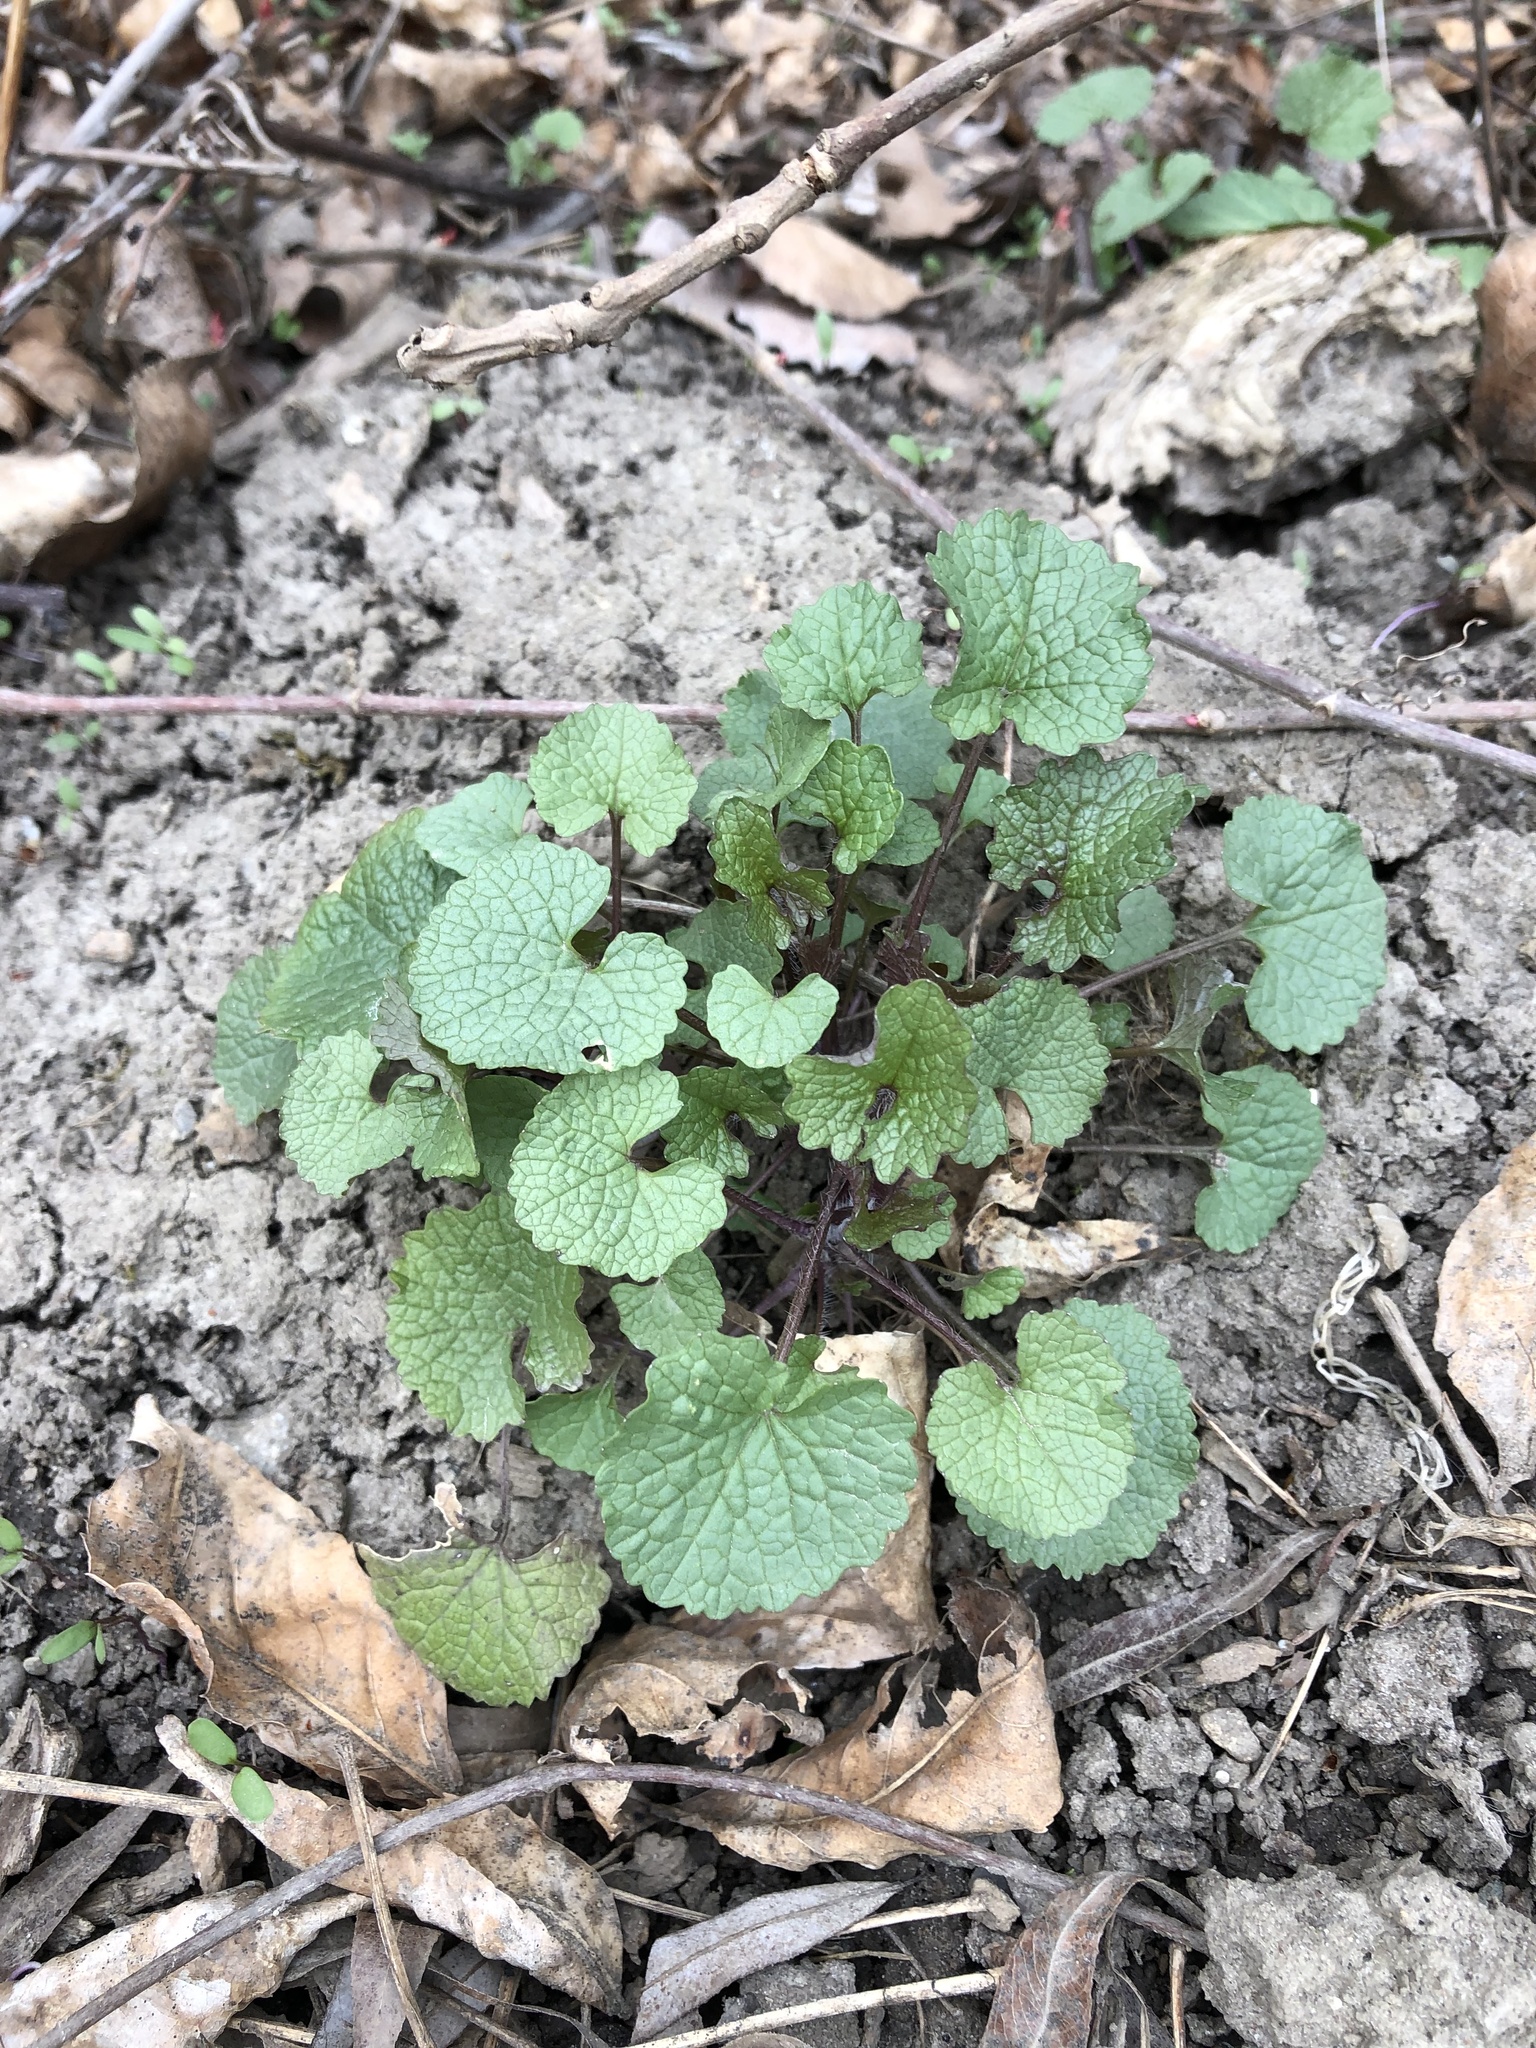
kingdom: Plantae
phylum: Tracheophyta
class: Magnoliopsida
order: Brassicales
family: Brassicaceae
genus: Alliaria
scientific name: Alliaria petiolata
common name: Garlic mustard
